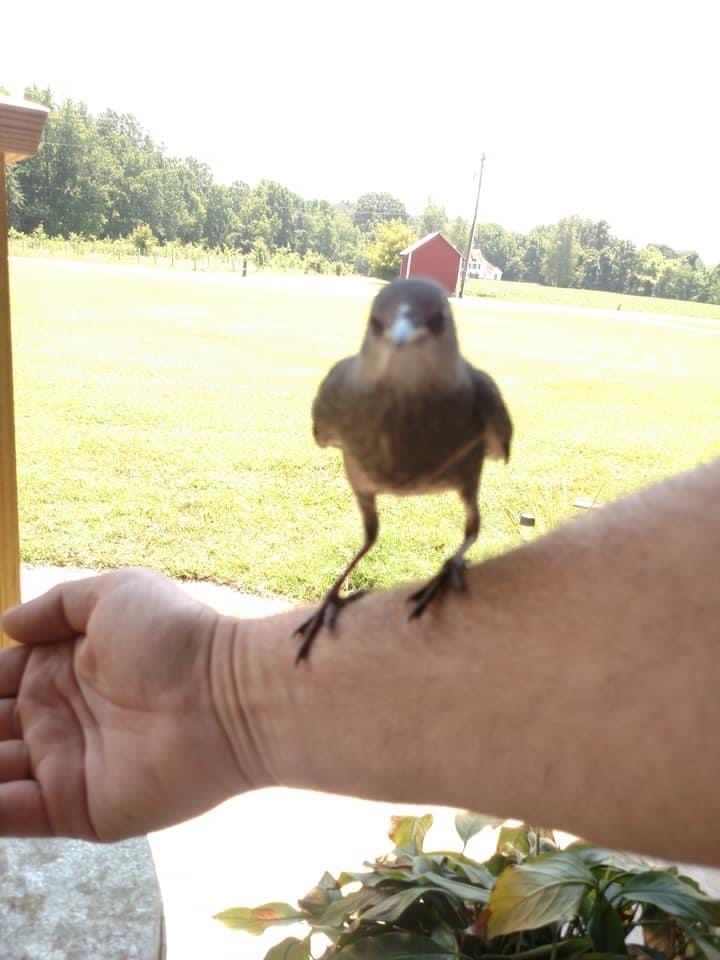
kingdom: Animalia
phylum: Chordata
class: Aves
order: Passeriformes
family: Sturnidae
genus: Sturnus
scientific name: Sturnus vulgaris
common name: Common starling
